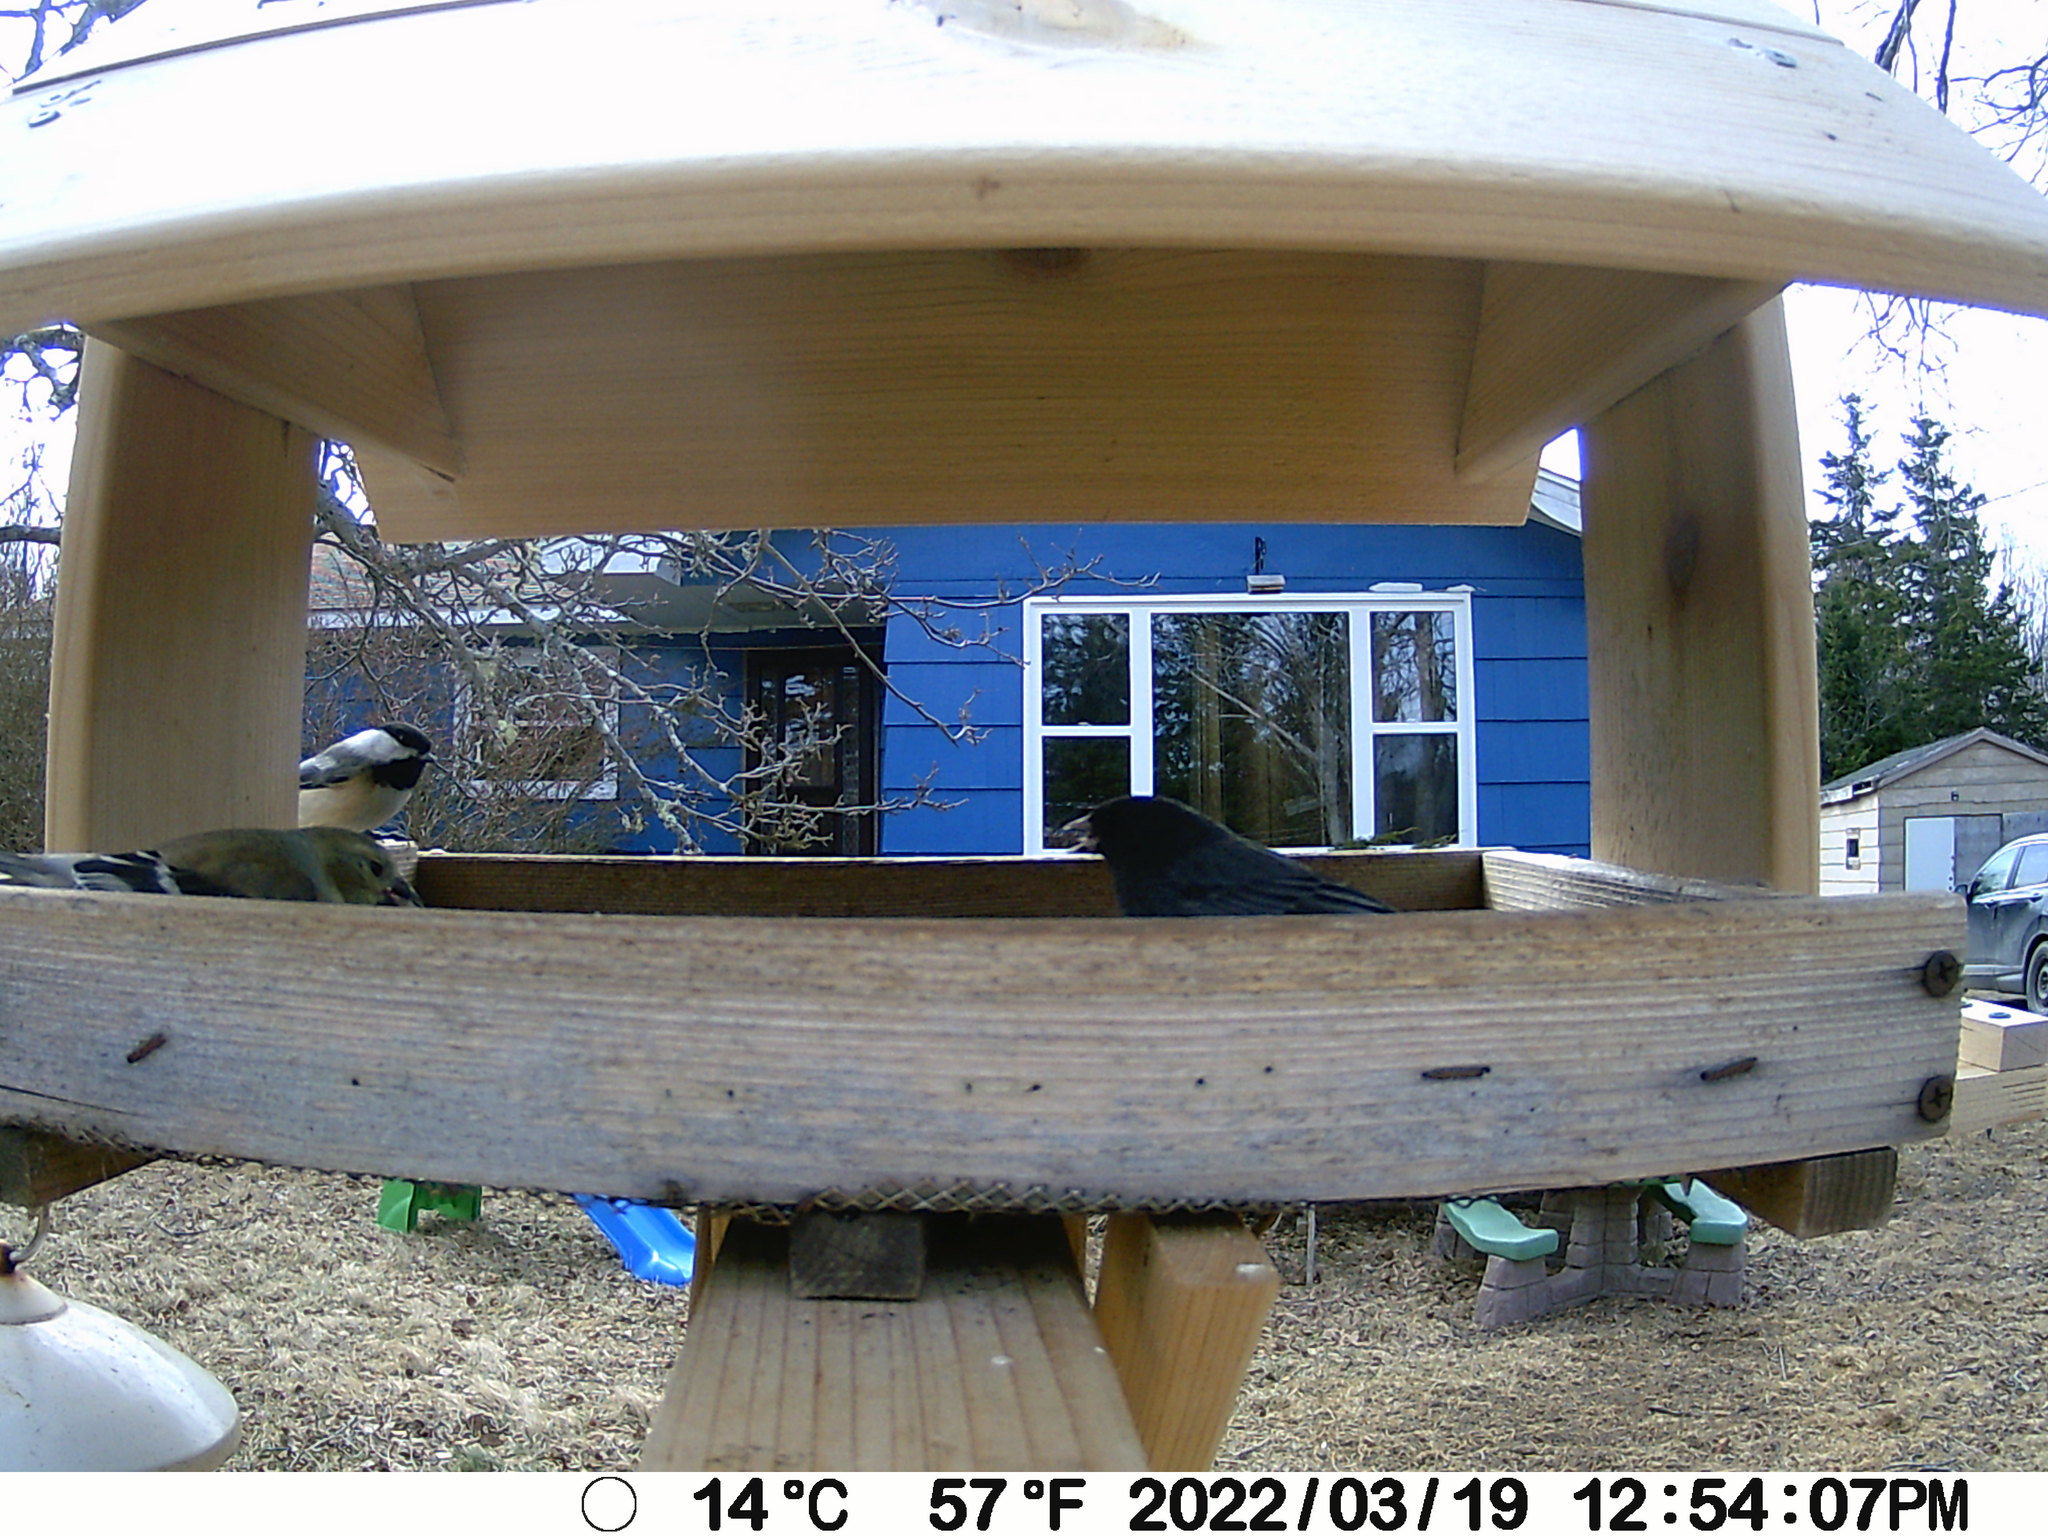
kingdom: Animalia
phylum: Chordata
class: Aves
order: Passeriformes
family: Passerellidae
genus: Junco
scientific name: Junco hyemalis
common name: Dark-eyed junco
